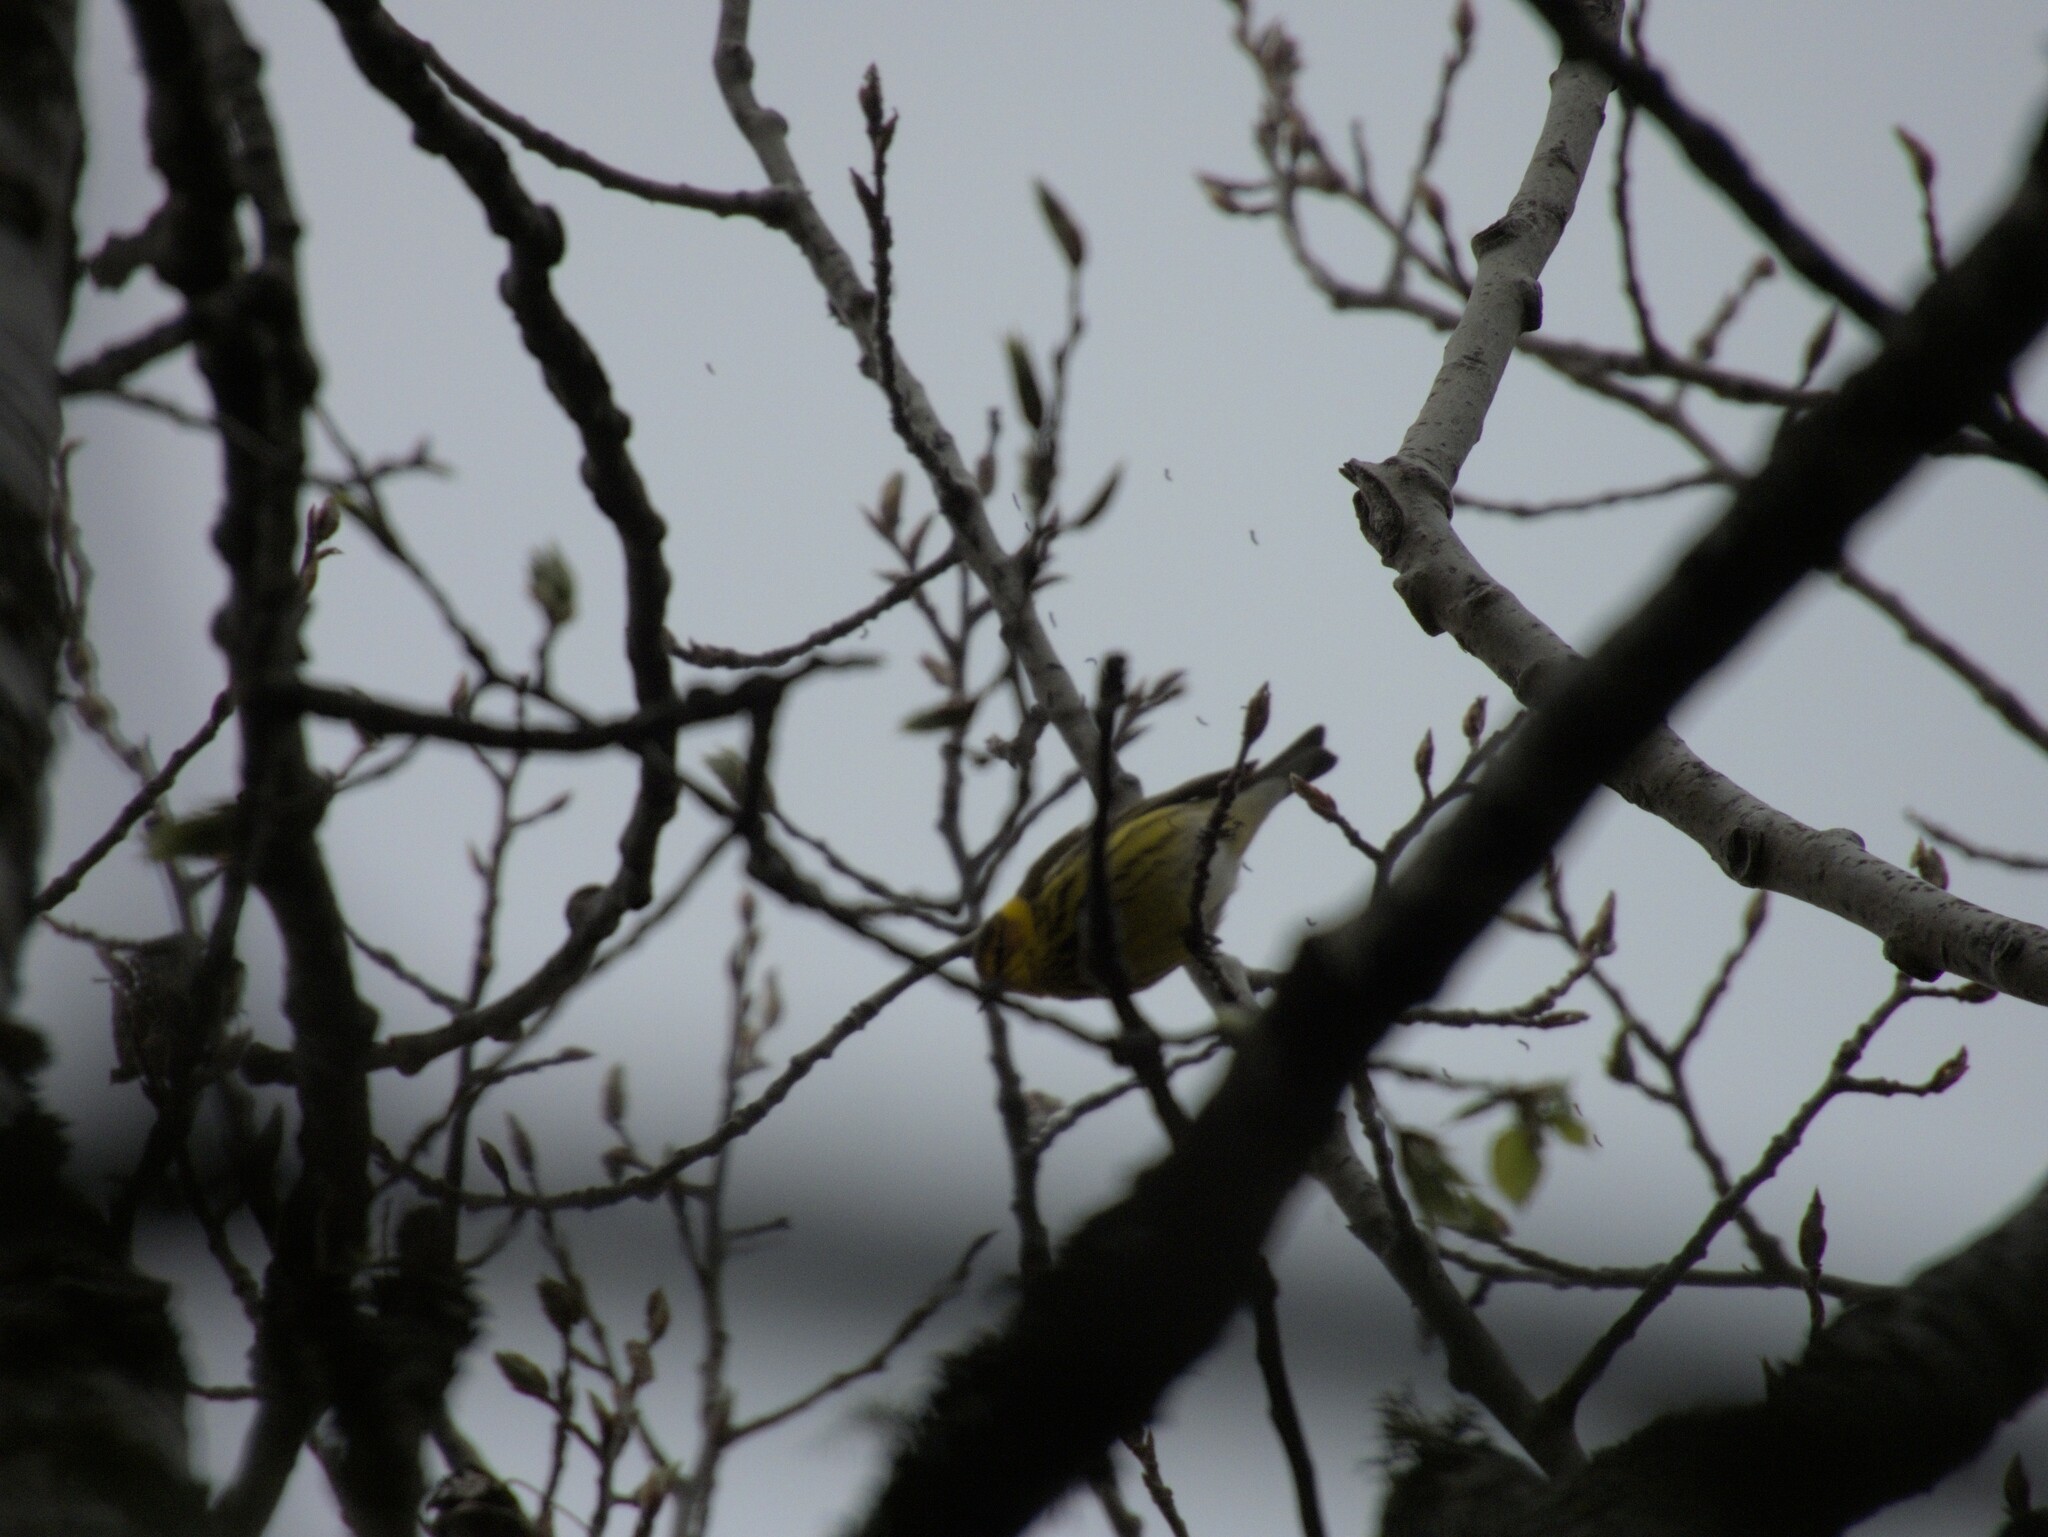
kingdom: Animalia
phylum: Chordata
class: Aves
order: Passeriformes
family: Parulidae
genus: Setophaga
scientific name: Setophaga tigrina
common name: Cape may warbler
